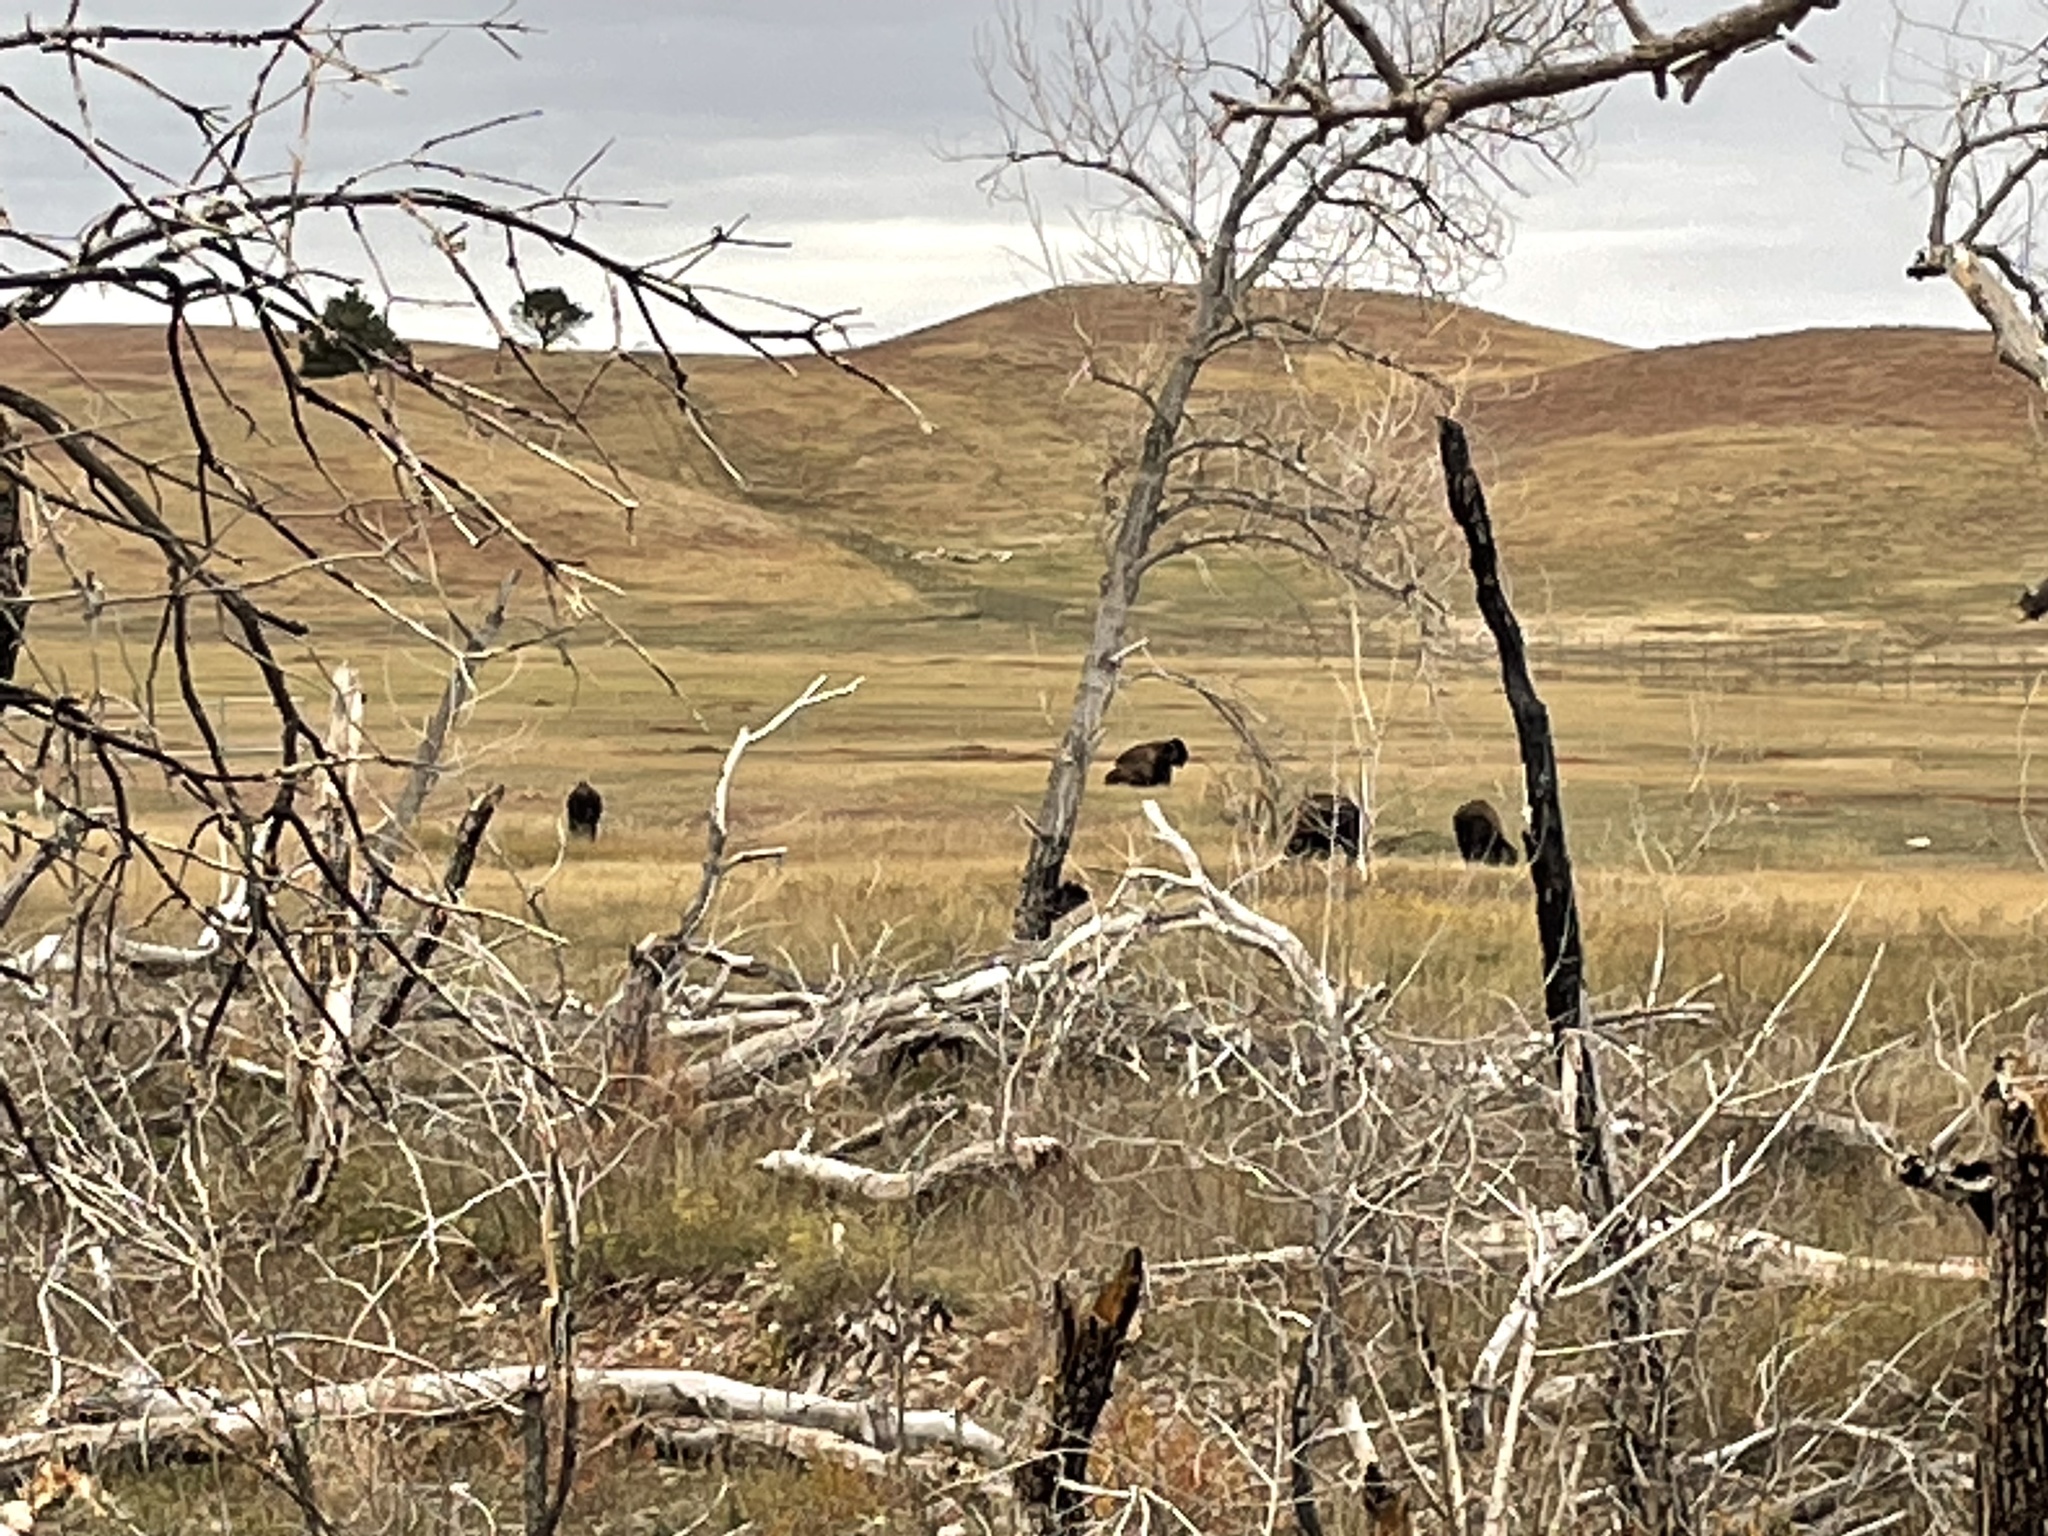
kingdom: Animalia
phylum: Chordata
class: Mammalia
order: Artiodactyla
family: Bovidae
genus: Bison
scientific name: Bison bison
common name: American bison
